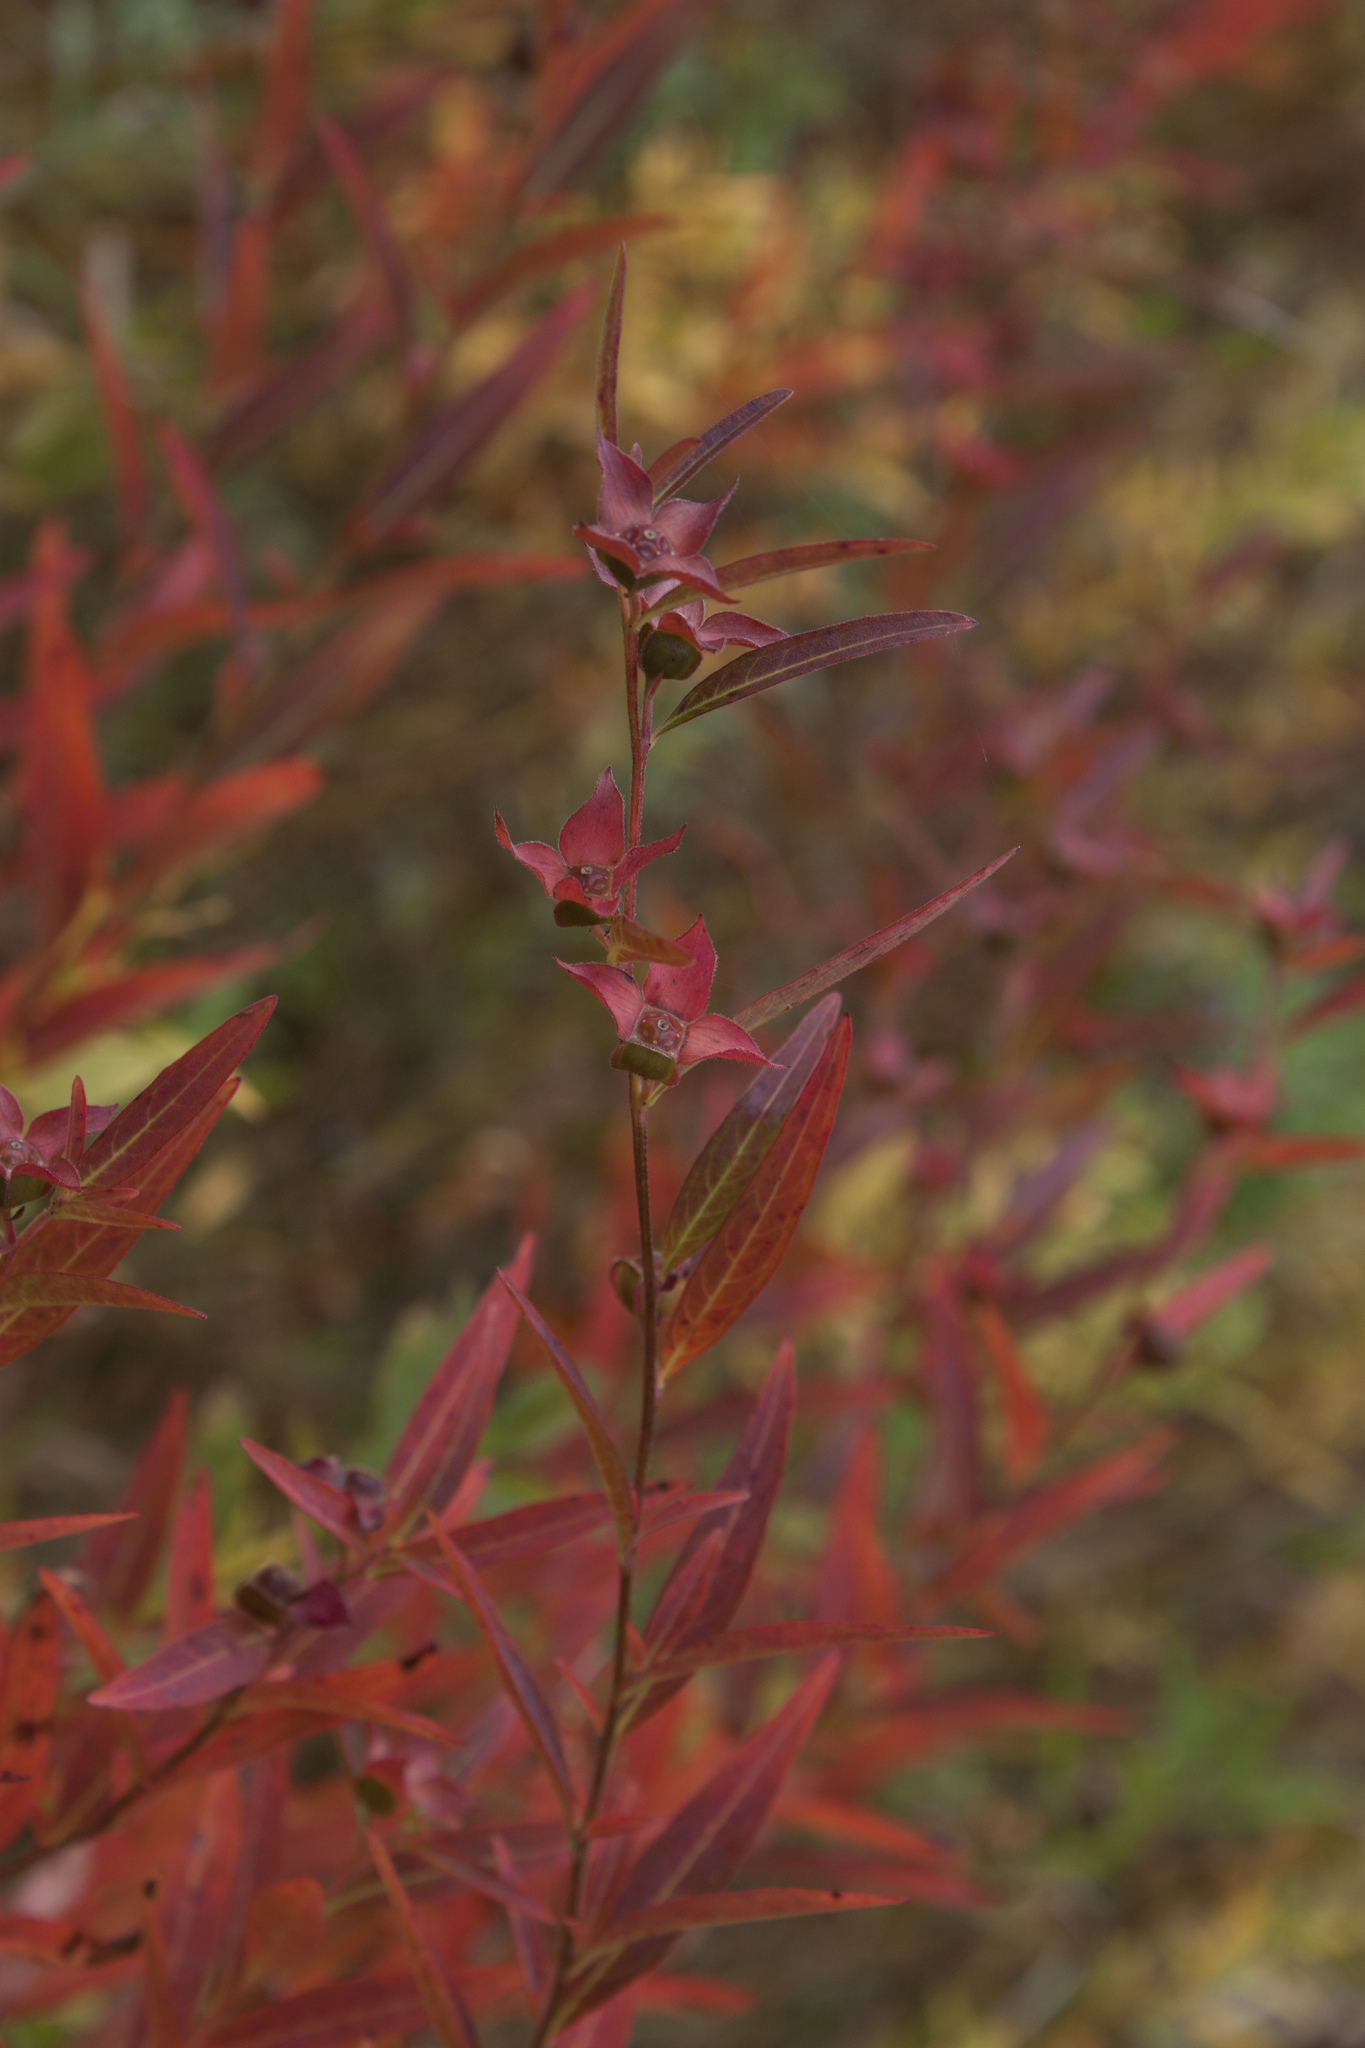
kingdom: Plantae
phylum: Tracheophyta
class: Magnoliopsida
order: Myrtales
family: Onagraceae
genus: Ludwigia
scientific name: Ludwigia alternifolia
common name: Rattlebox
